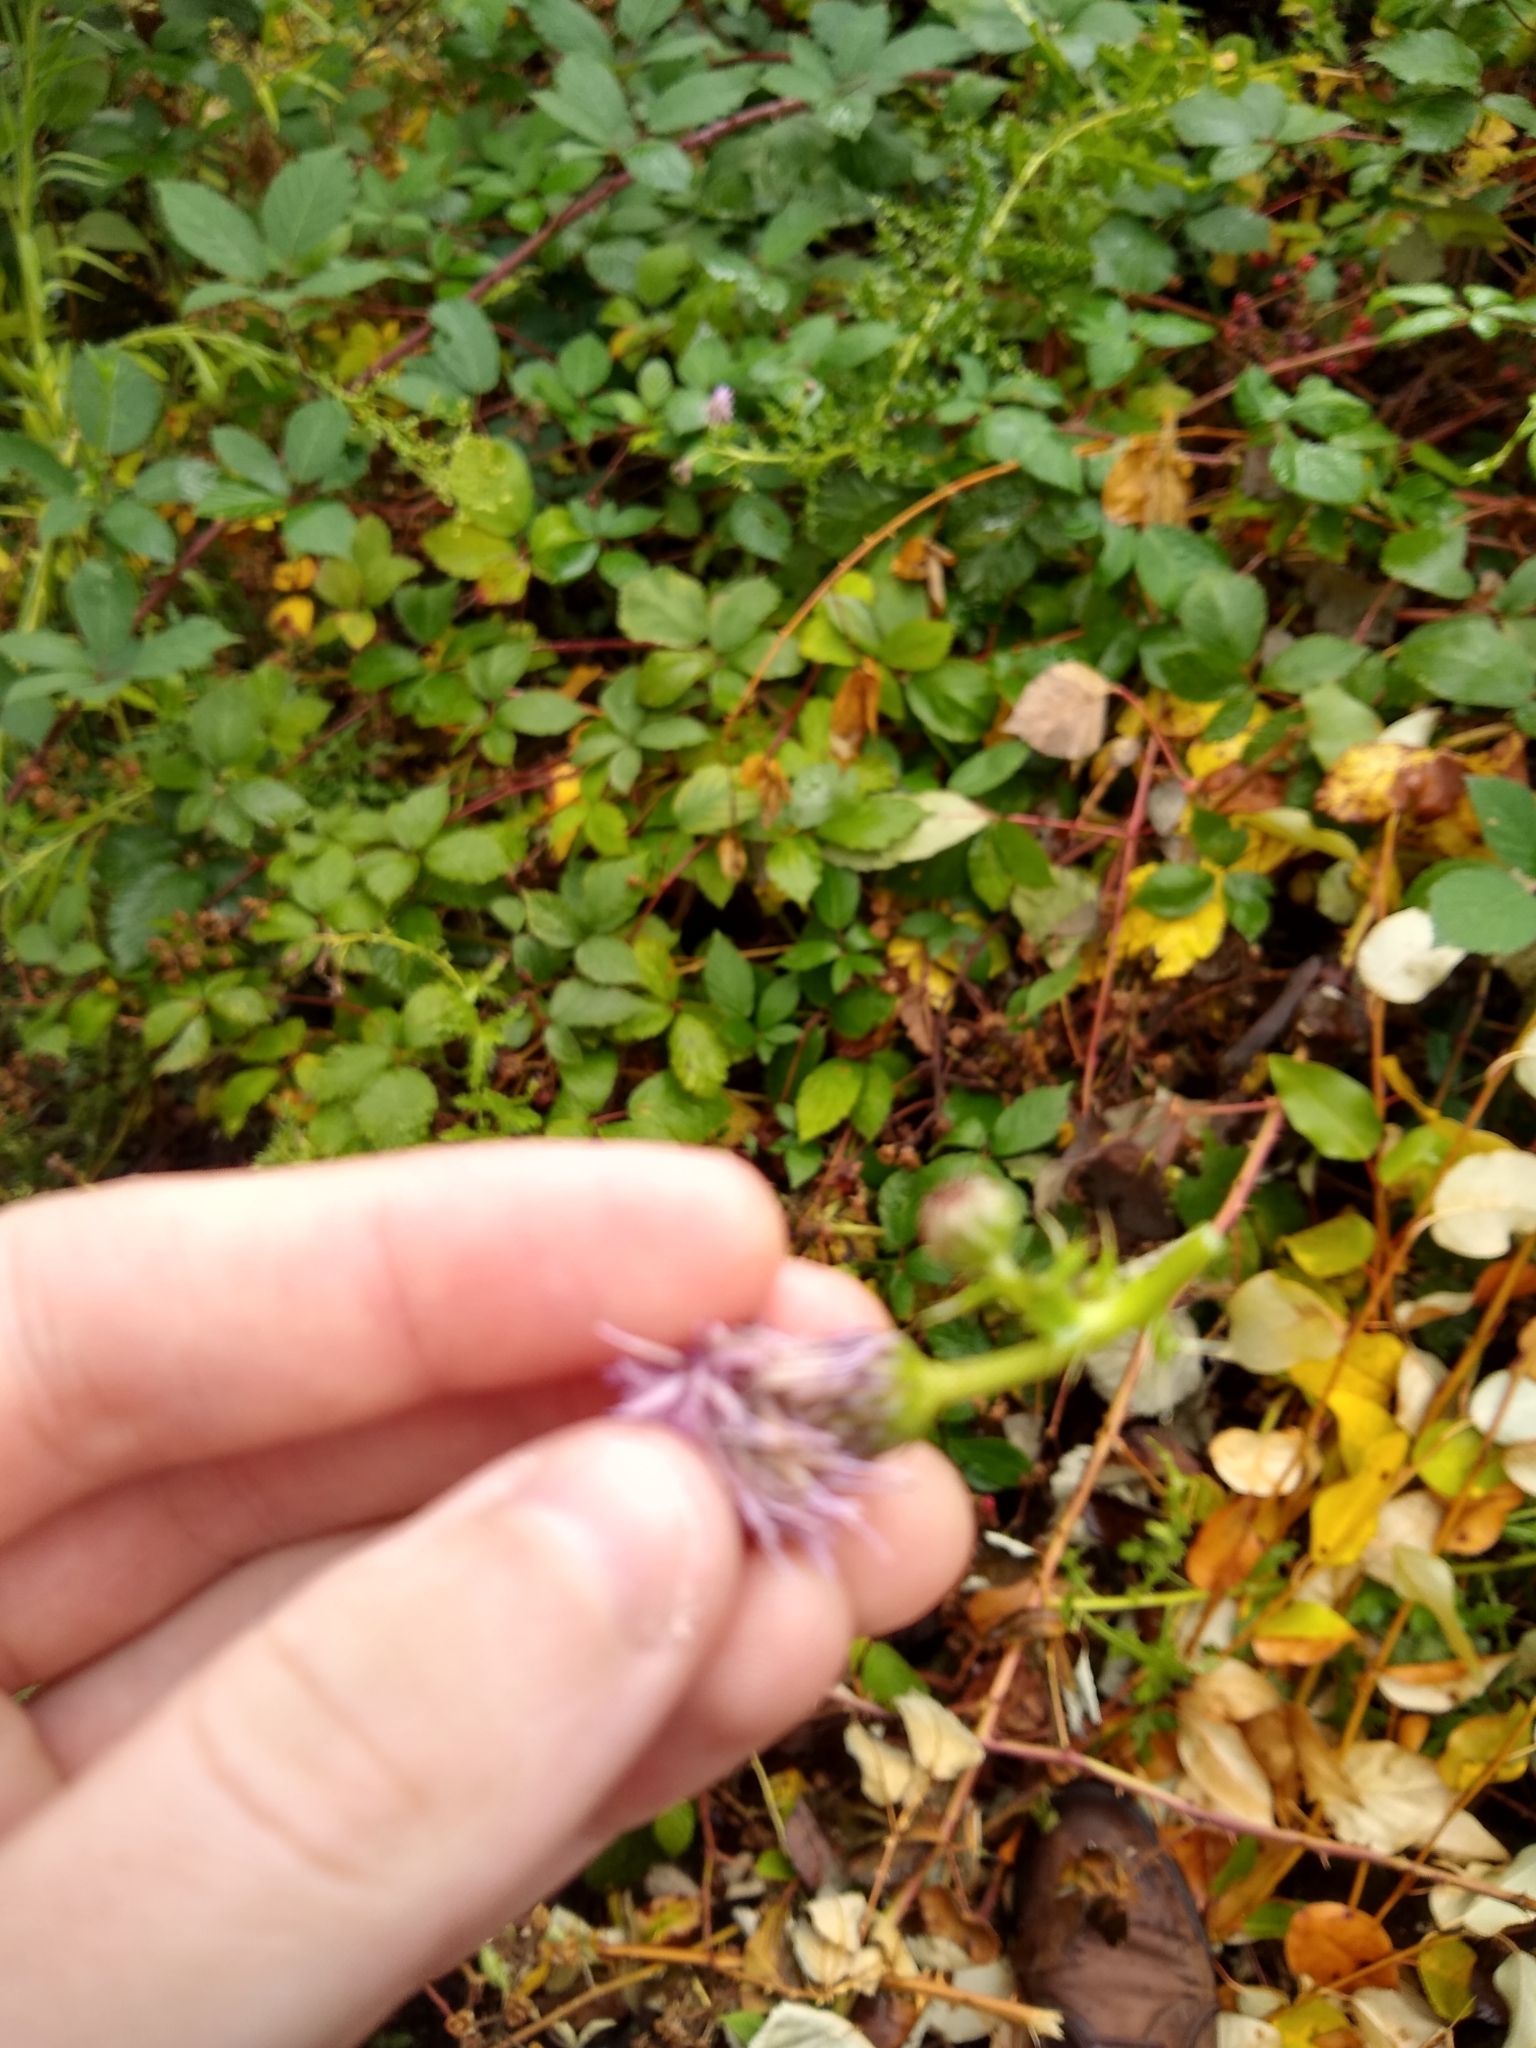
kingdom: Plantae
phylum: Tracheophyta
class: Magnoliopsida
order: Asterales
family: Asteraceae
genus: Cirsium
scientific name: Cirsium arvense
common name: Creeping thistle
